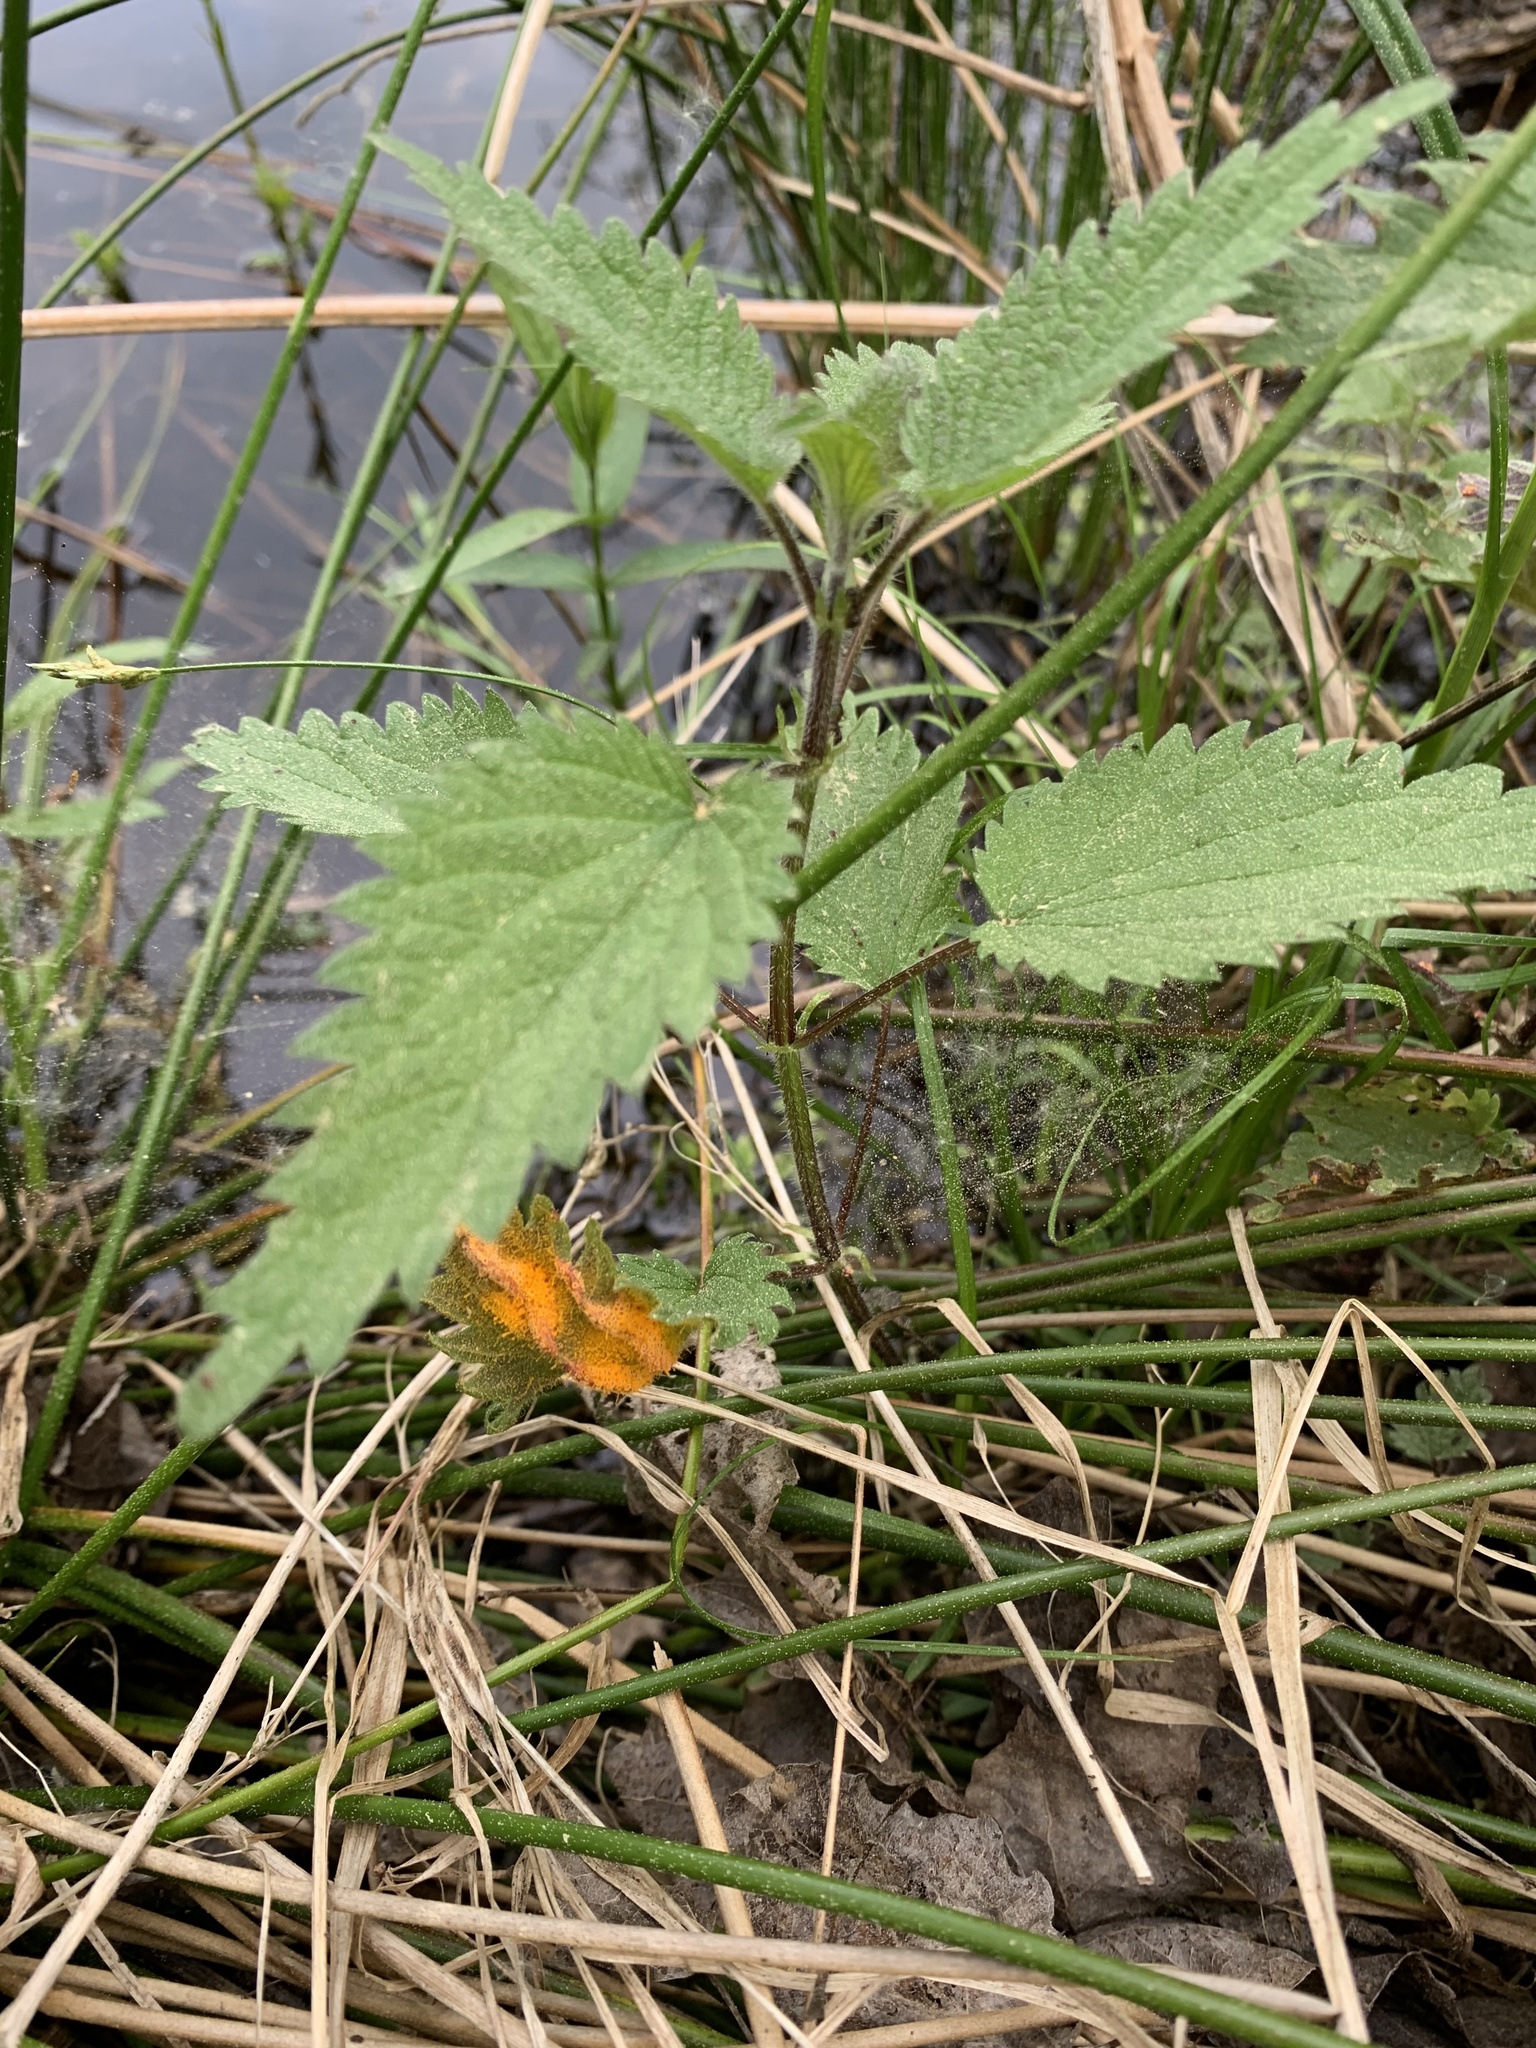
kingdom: Fungi
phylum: Basidiomycota
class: Pucciniomycetes
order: Pucciniales
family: Pucciniaceae
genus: Puccinia
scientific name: Puccinia urticata
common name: Nettle clustercup rust fungus
